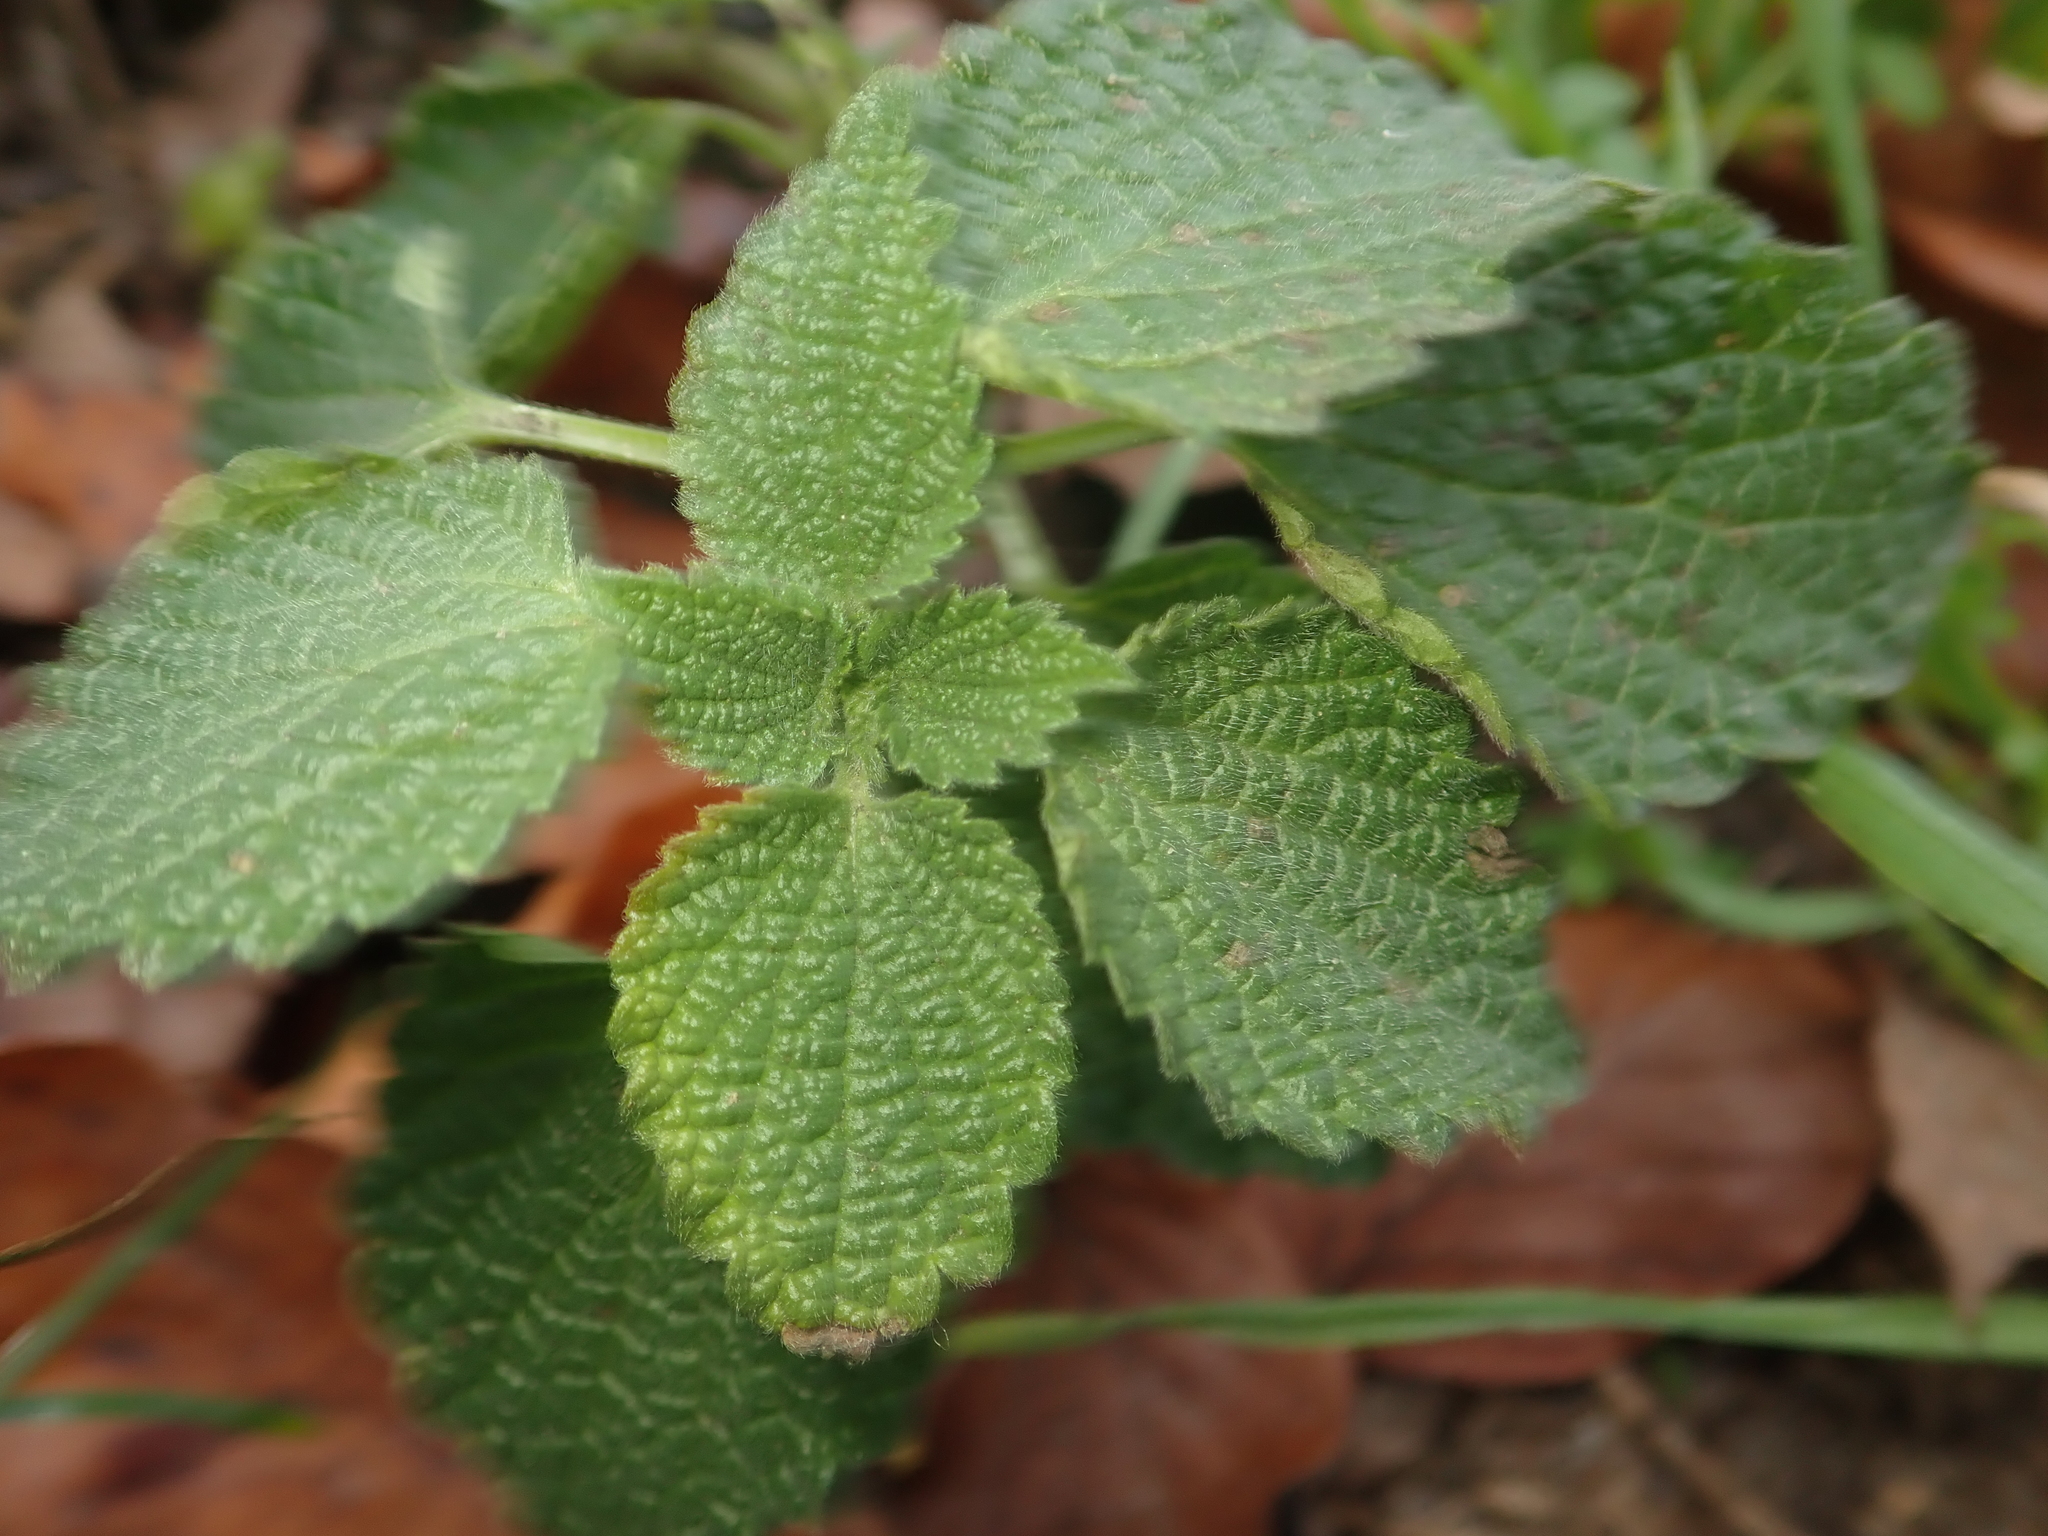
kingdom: Plantae
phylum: Tracheophyta
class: Magnoliopsida
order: Lamiales
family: Lamiaceae
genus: Ballota
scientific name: Ballota nigra
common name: Black horehound
